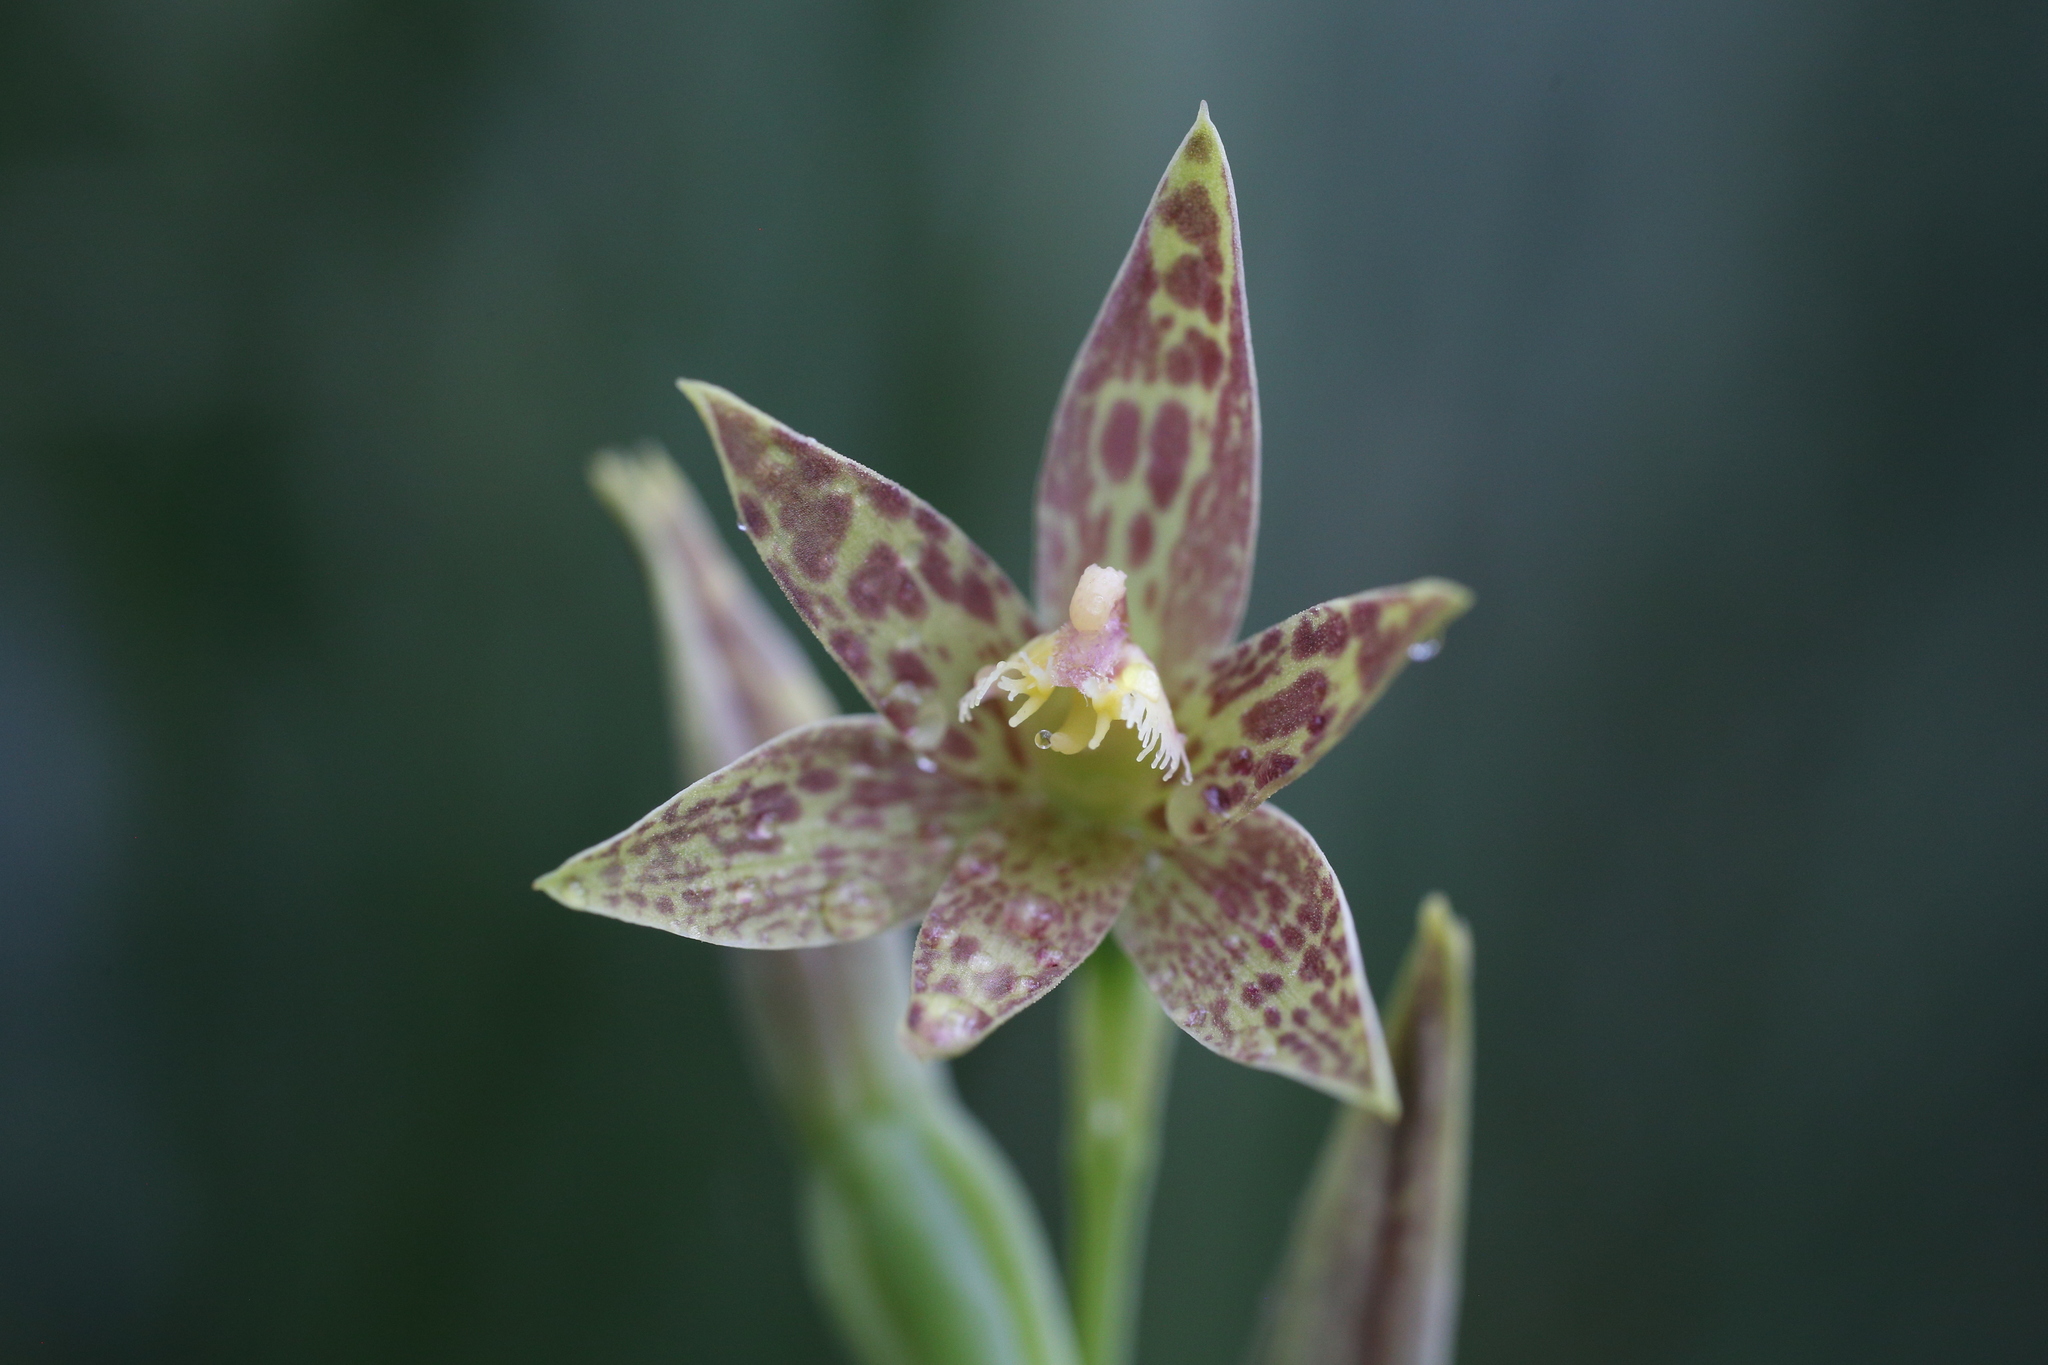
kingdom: Plantae
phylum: Tracheophyta
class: Liliopsida
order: Asparagales
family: Orchidaceae
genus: Thelymitra
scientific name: Thelymitra benthamiana
